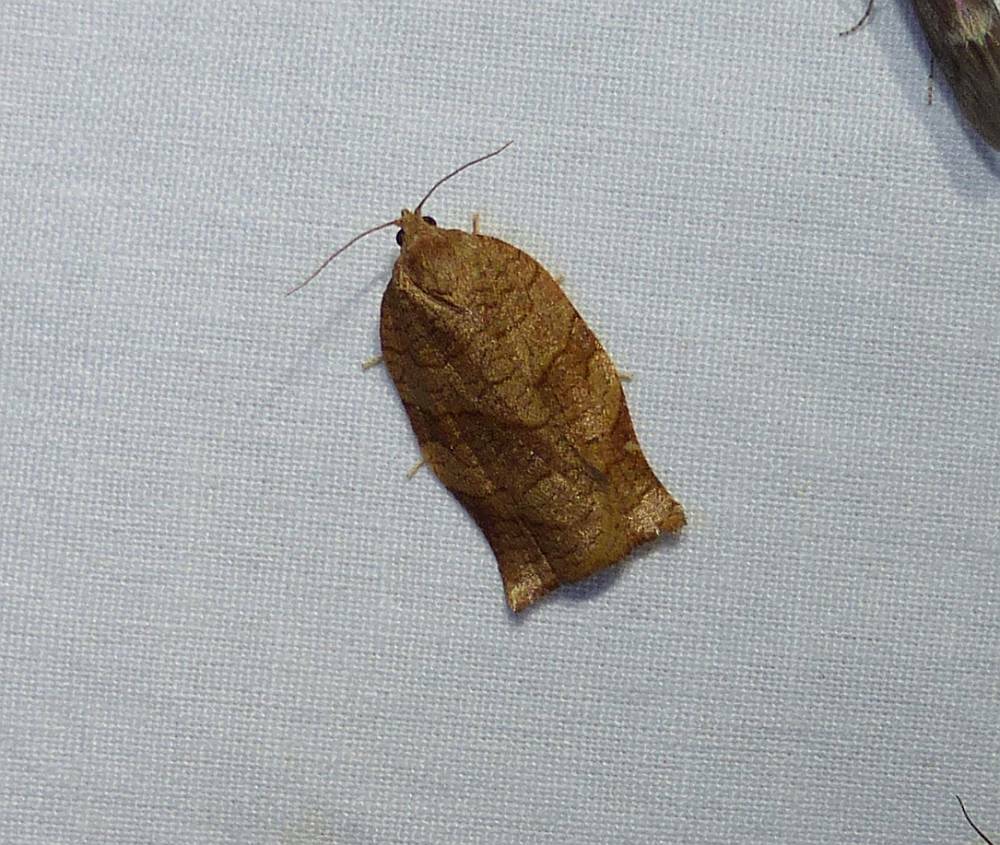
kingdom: Animalia
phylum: Arthropoda
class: Insecta
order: Lepidoptera
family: Tortricidae
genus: Choristoneura
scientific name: Choristoneura rosaceana
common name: Oblique-banded leafroller moth
